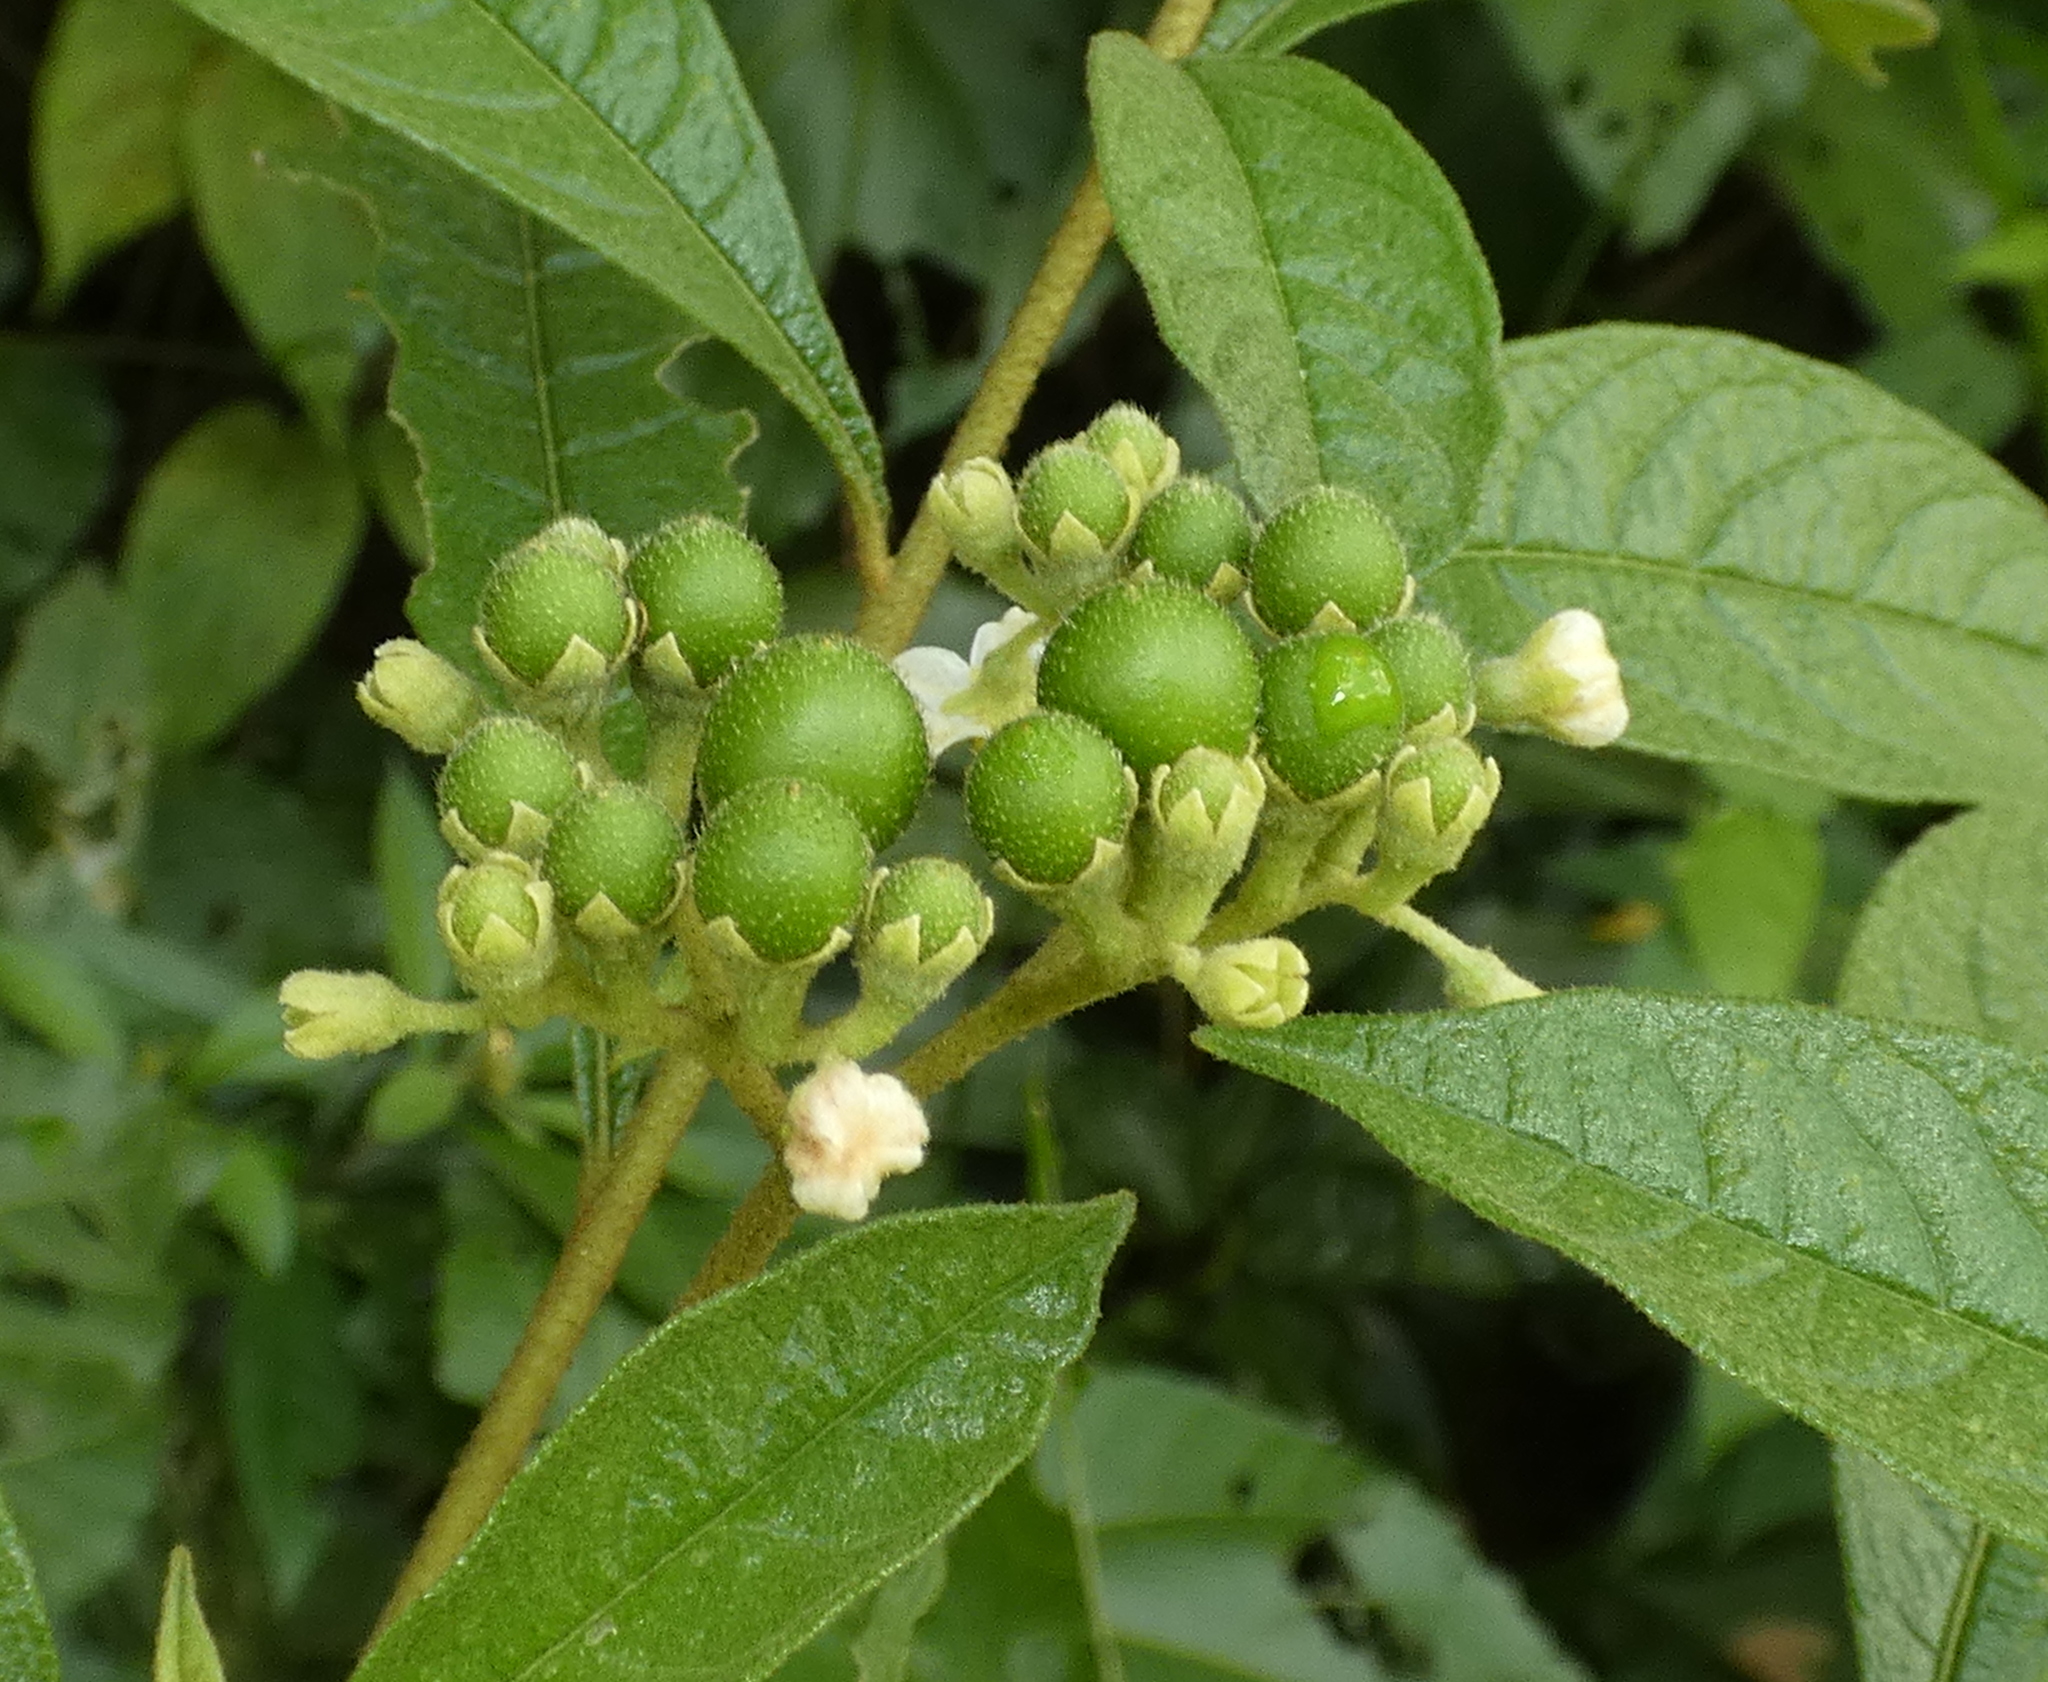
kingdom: Plantae
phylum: Tracheophyta
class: Magnoliopsida
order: Solanales
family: Solanaceae
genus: Solanum
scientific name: Solanum asperum
